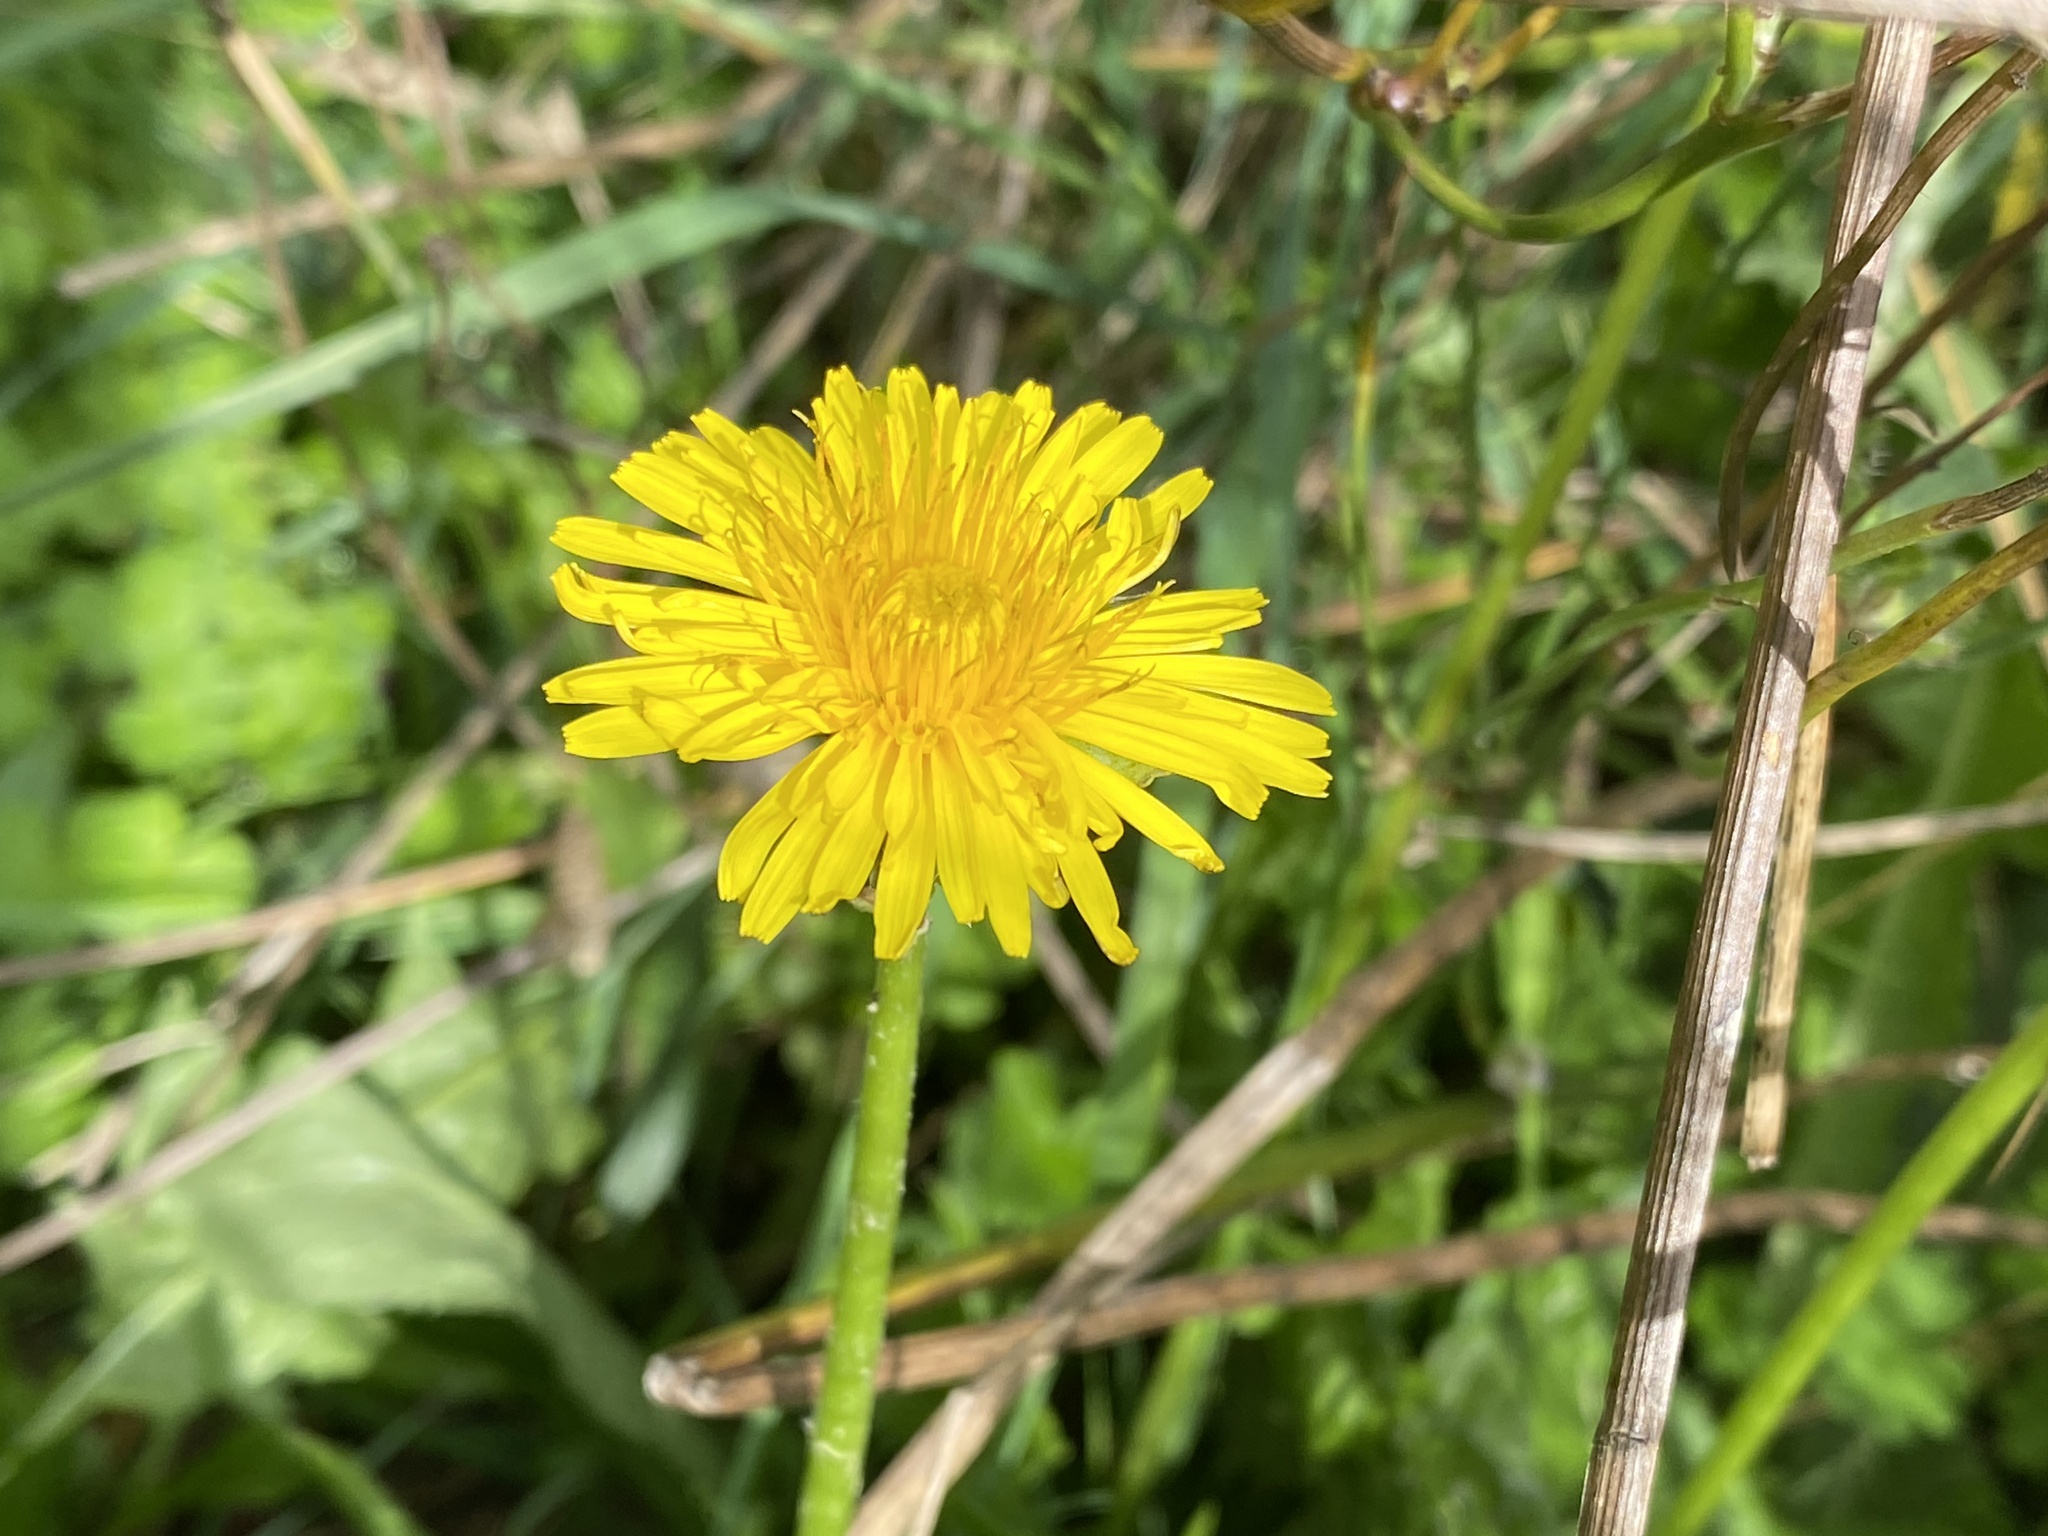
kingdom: Plantae
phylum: Tracheophyta
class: Magnoliopsida
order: Asterales
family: Asteraceae
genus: Taraxacum
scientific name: Taraxacum officinale
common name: Common dandelion
